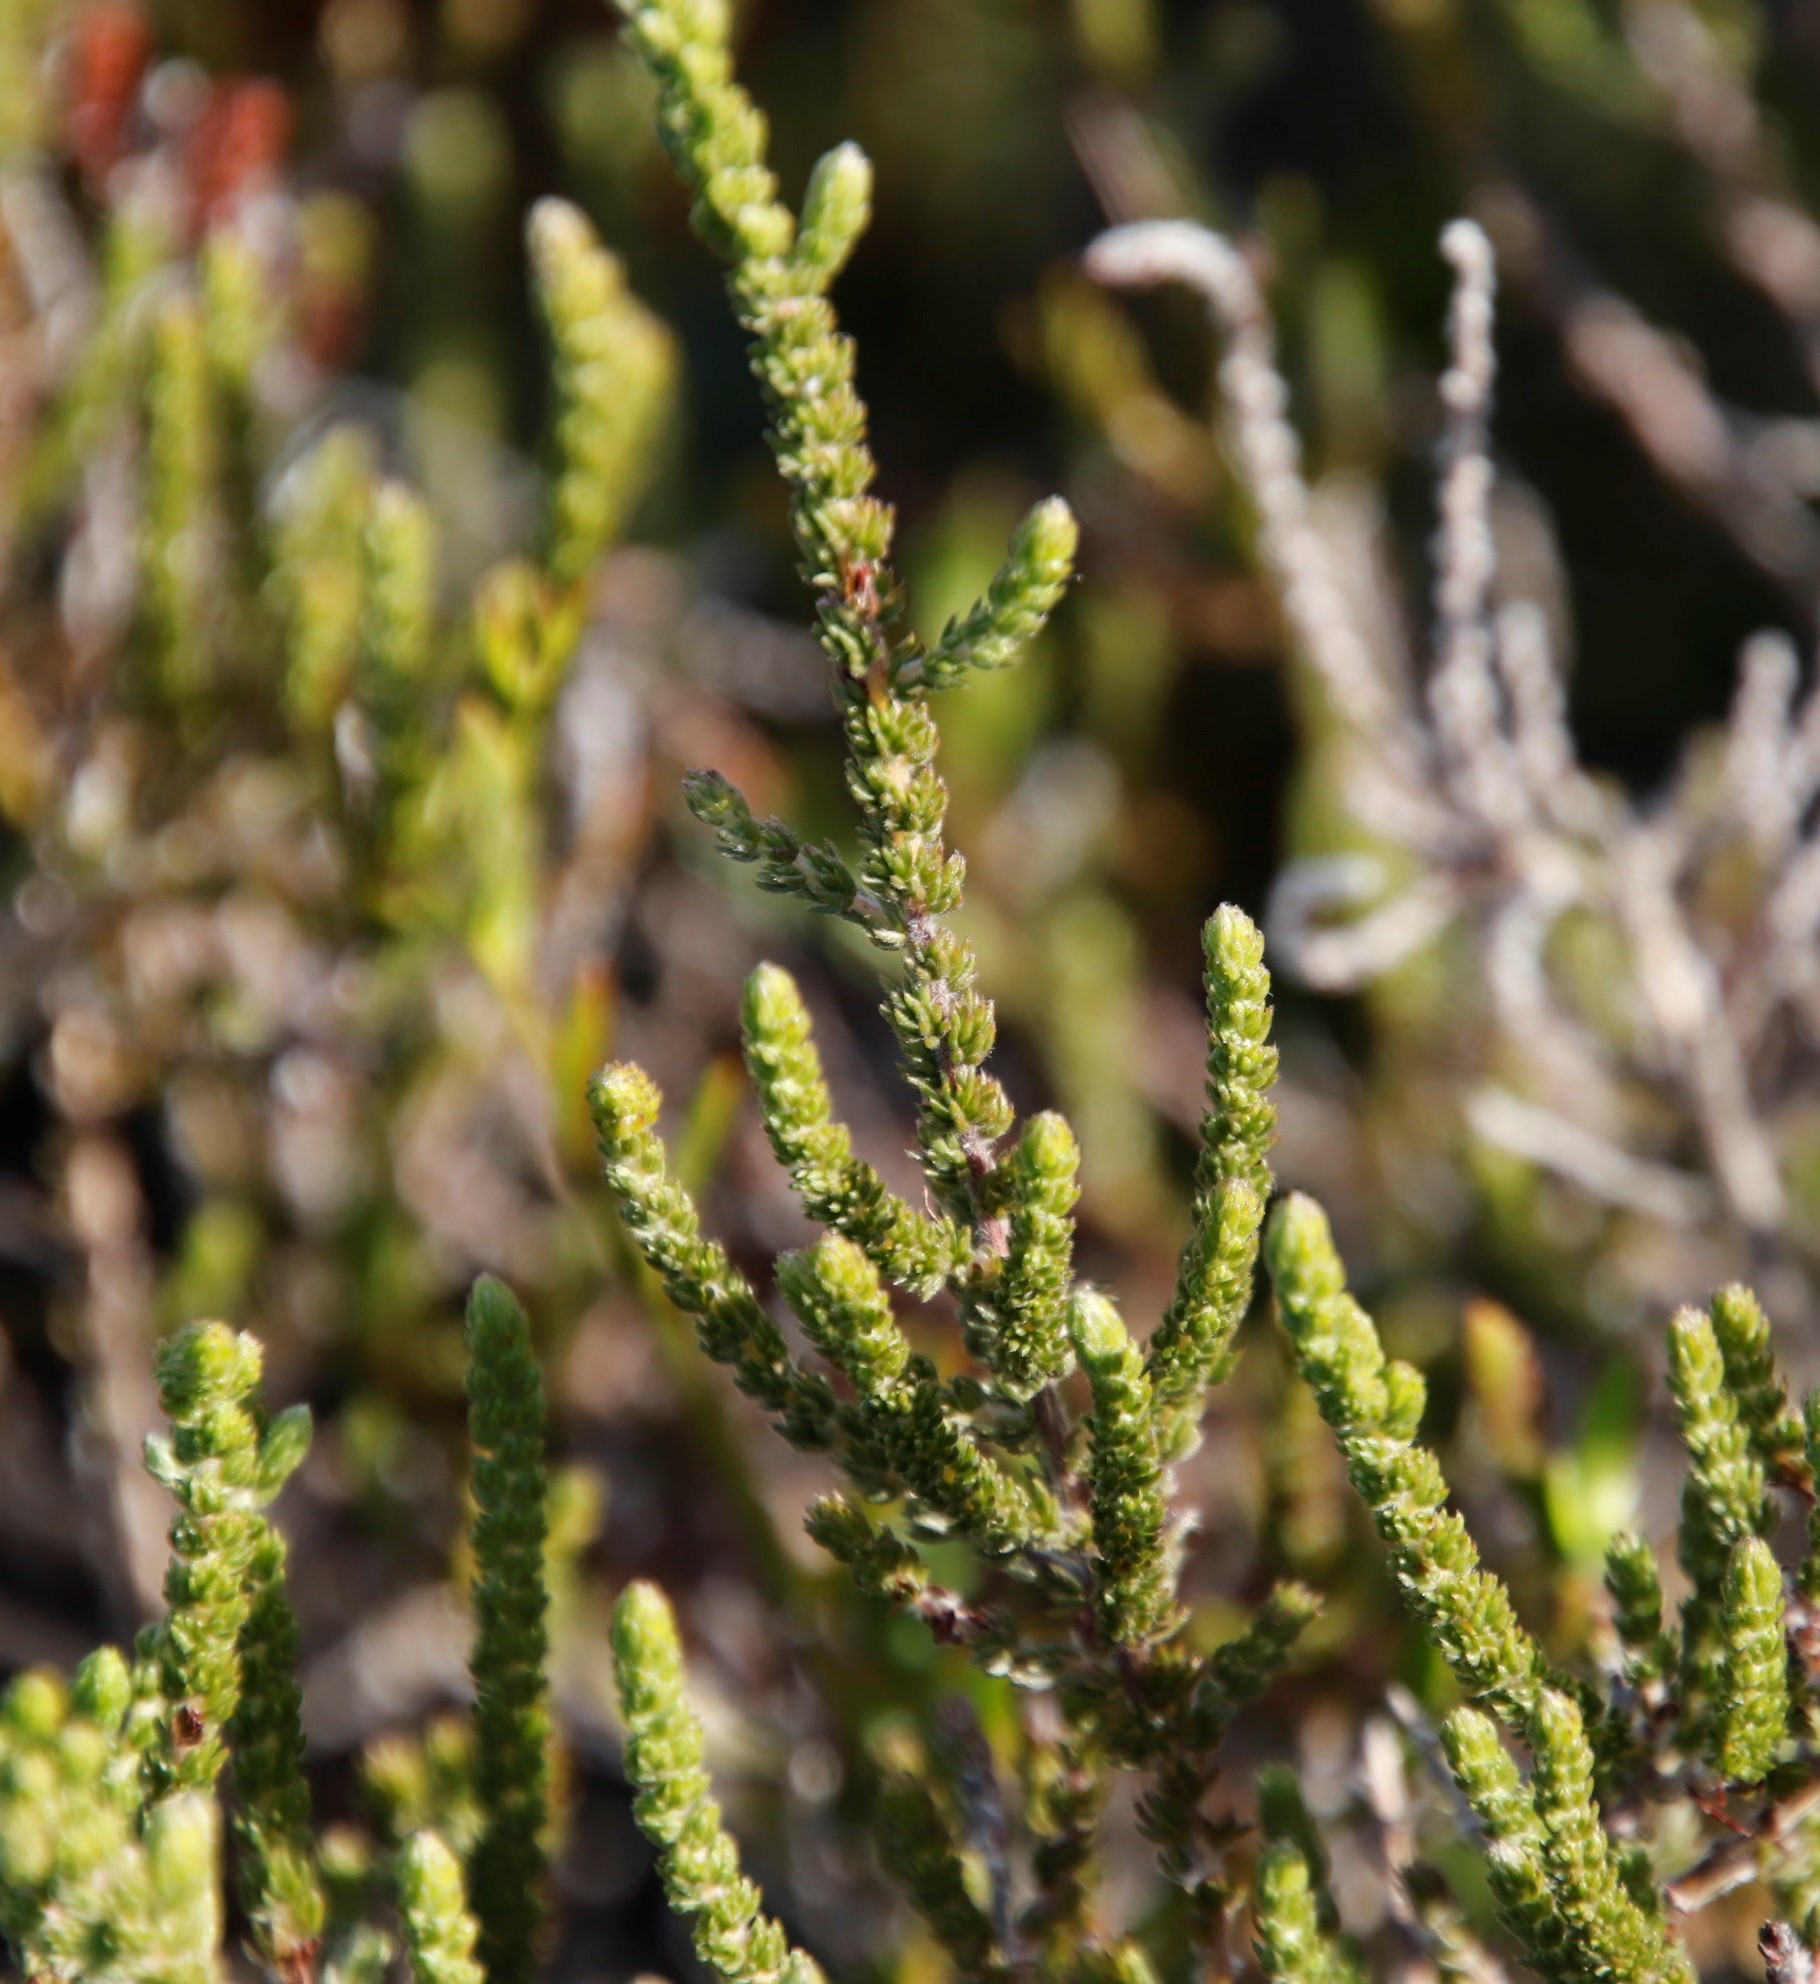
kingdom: Plantae
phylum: Tracheophyta
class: Magnoliopsida
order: Fabales
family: Fabaceae
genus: Aspalathus
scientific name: Aspalathus ericifolia
